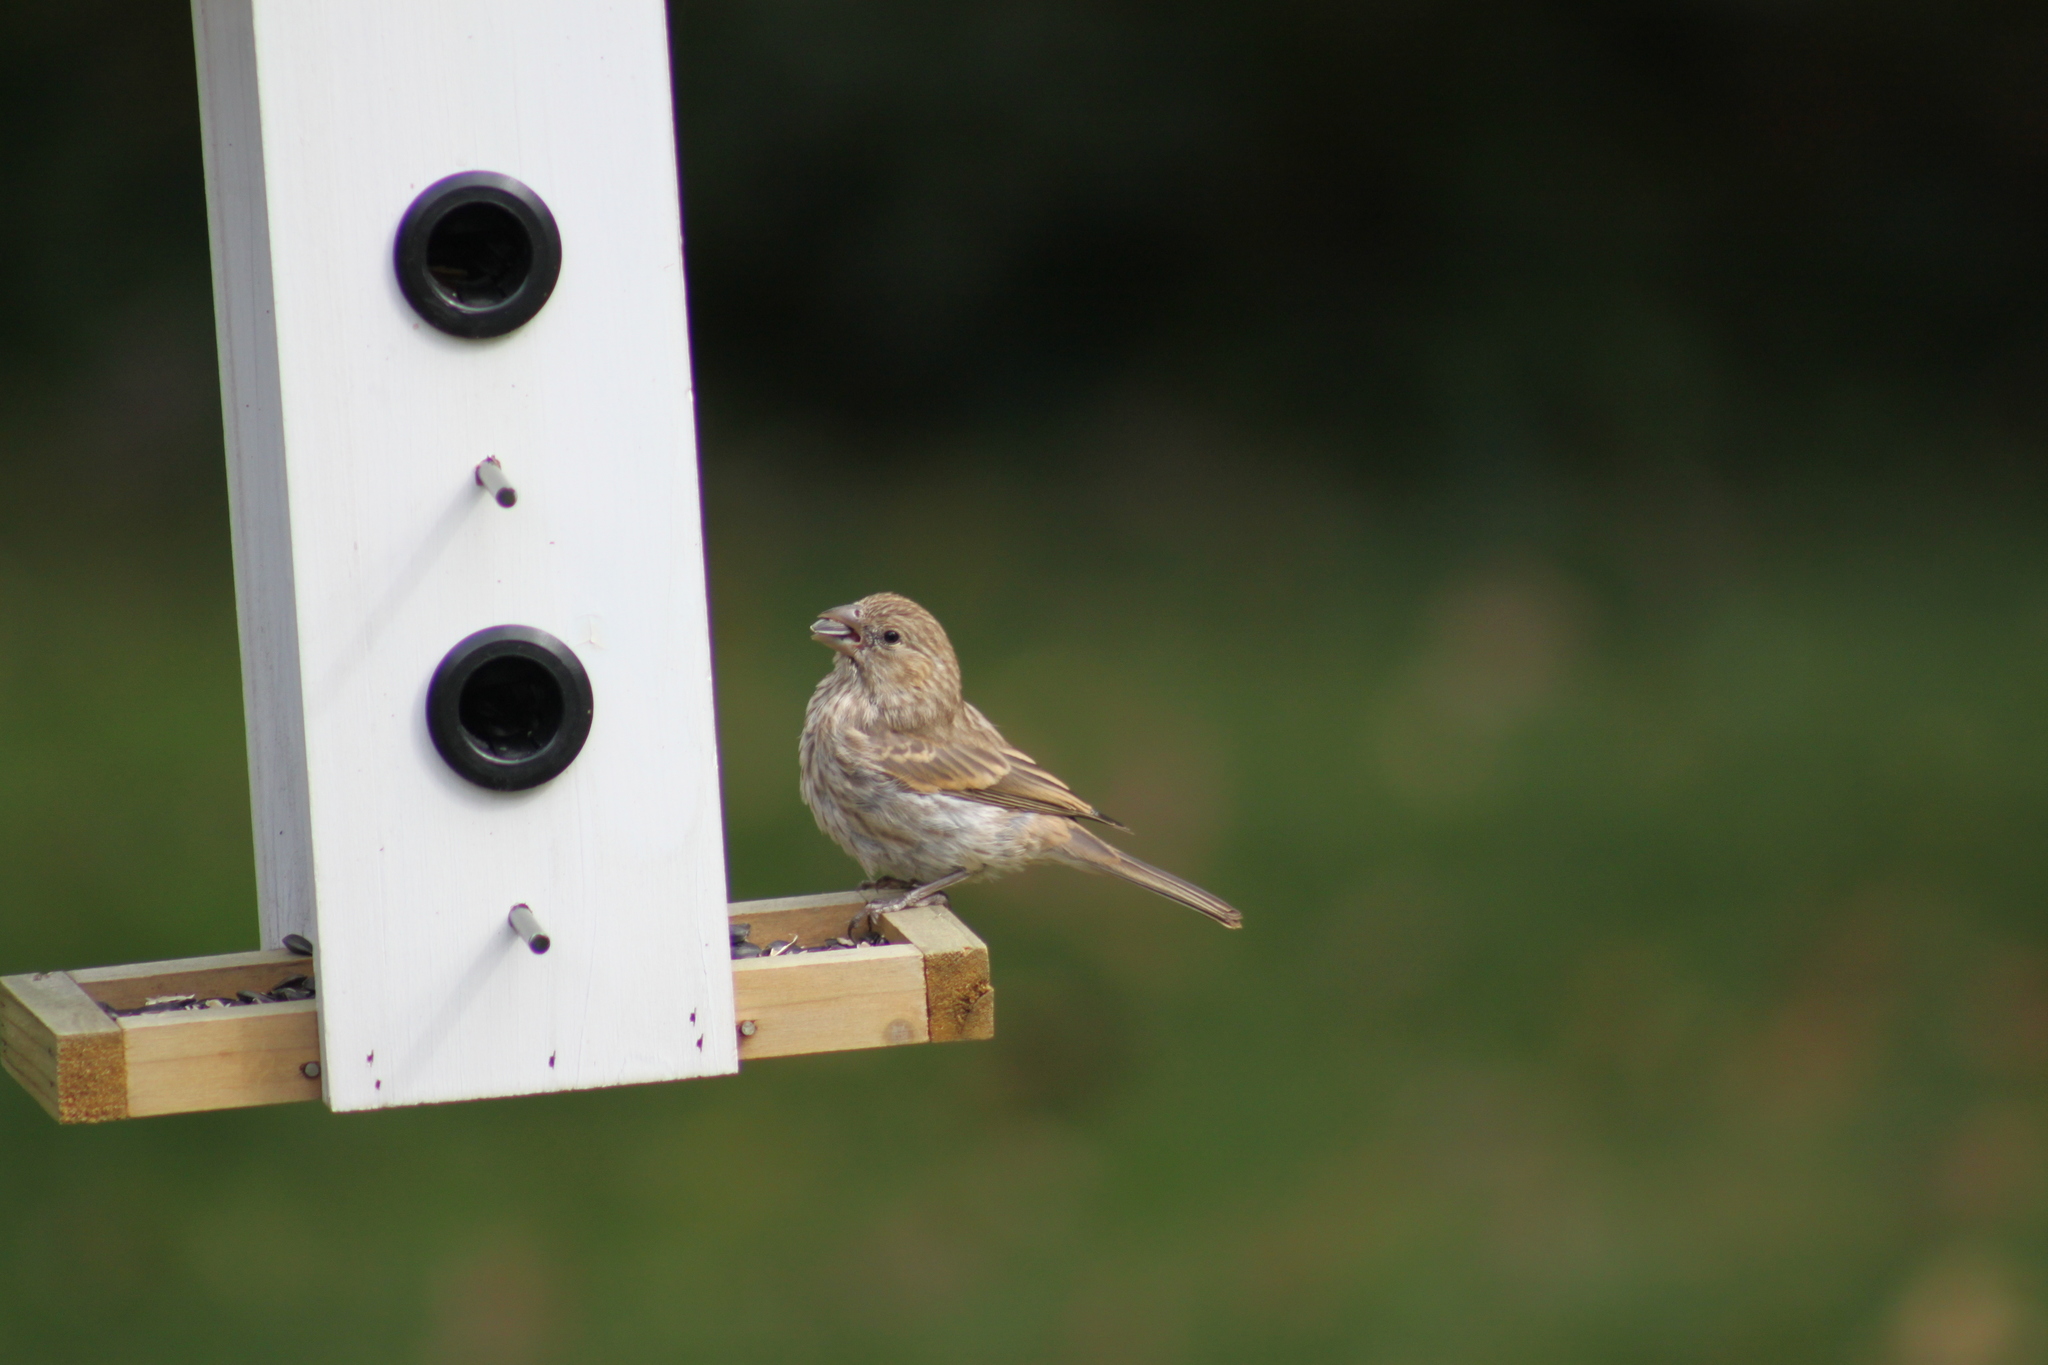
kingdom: Animalia
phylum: Chordata
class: Aves
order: Passeriformes
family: Fringillidae
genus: Haemorhous
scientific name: Haemorhous mexicanus
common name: House finch
